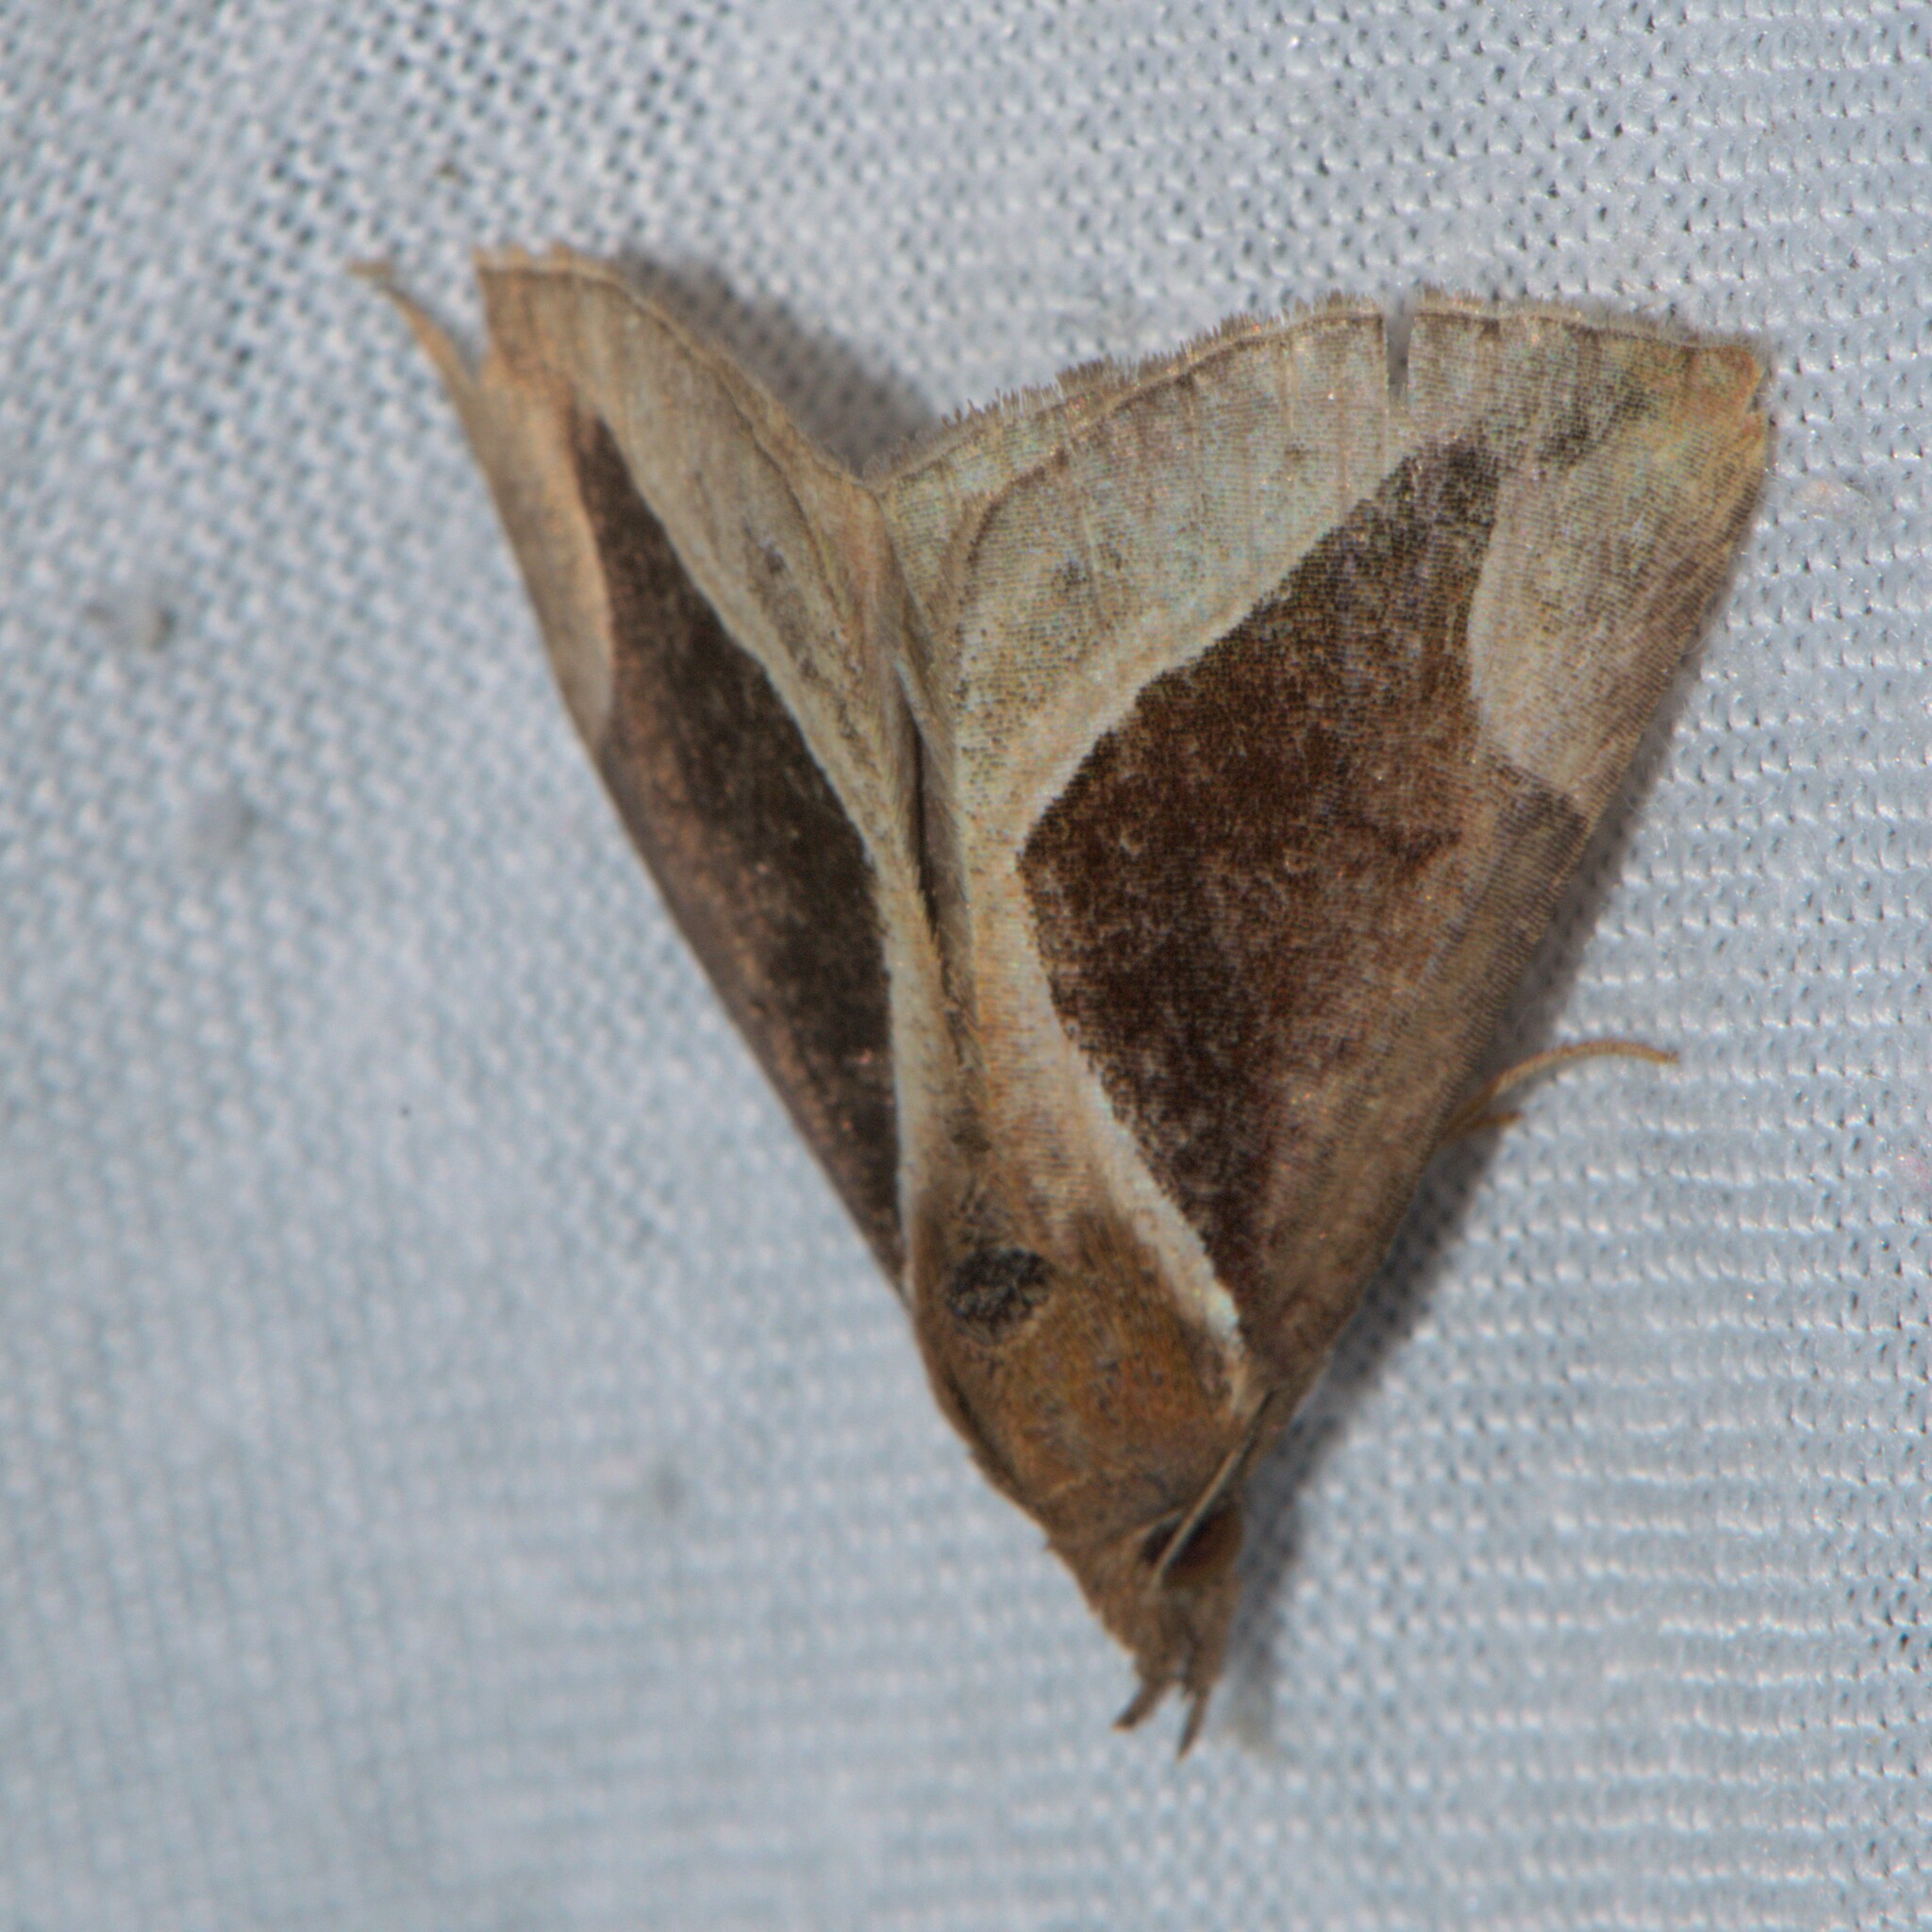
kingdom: Animalia
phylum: Arthropoda
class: Insecta
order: Lepidoptera
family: Erebidae
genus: Hypena
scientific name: Hypena rhombalis
